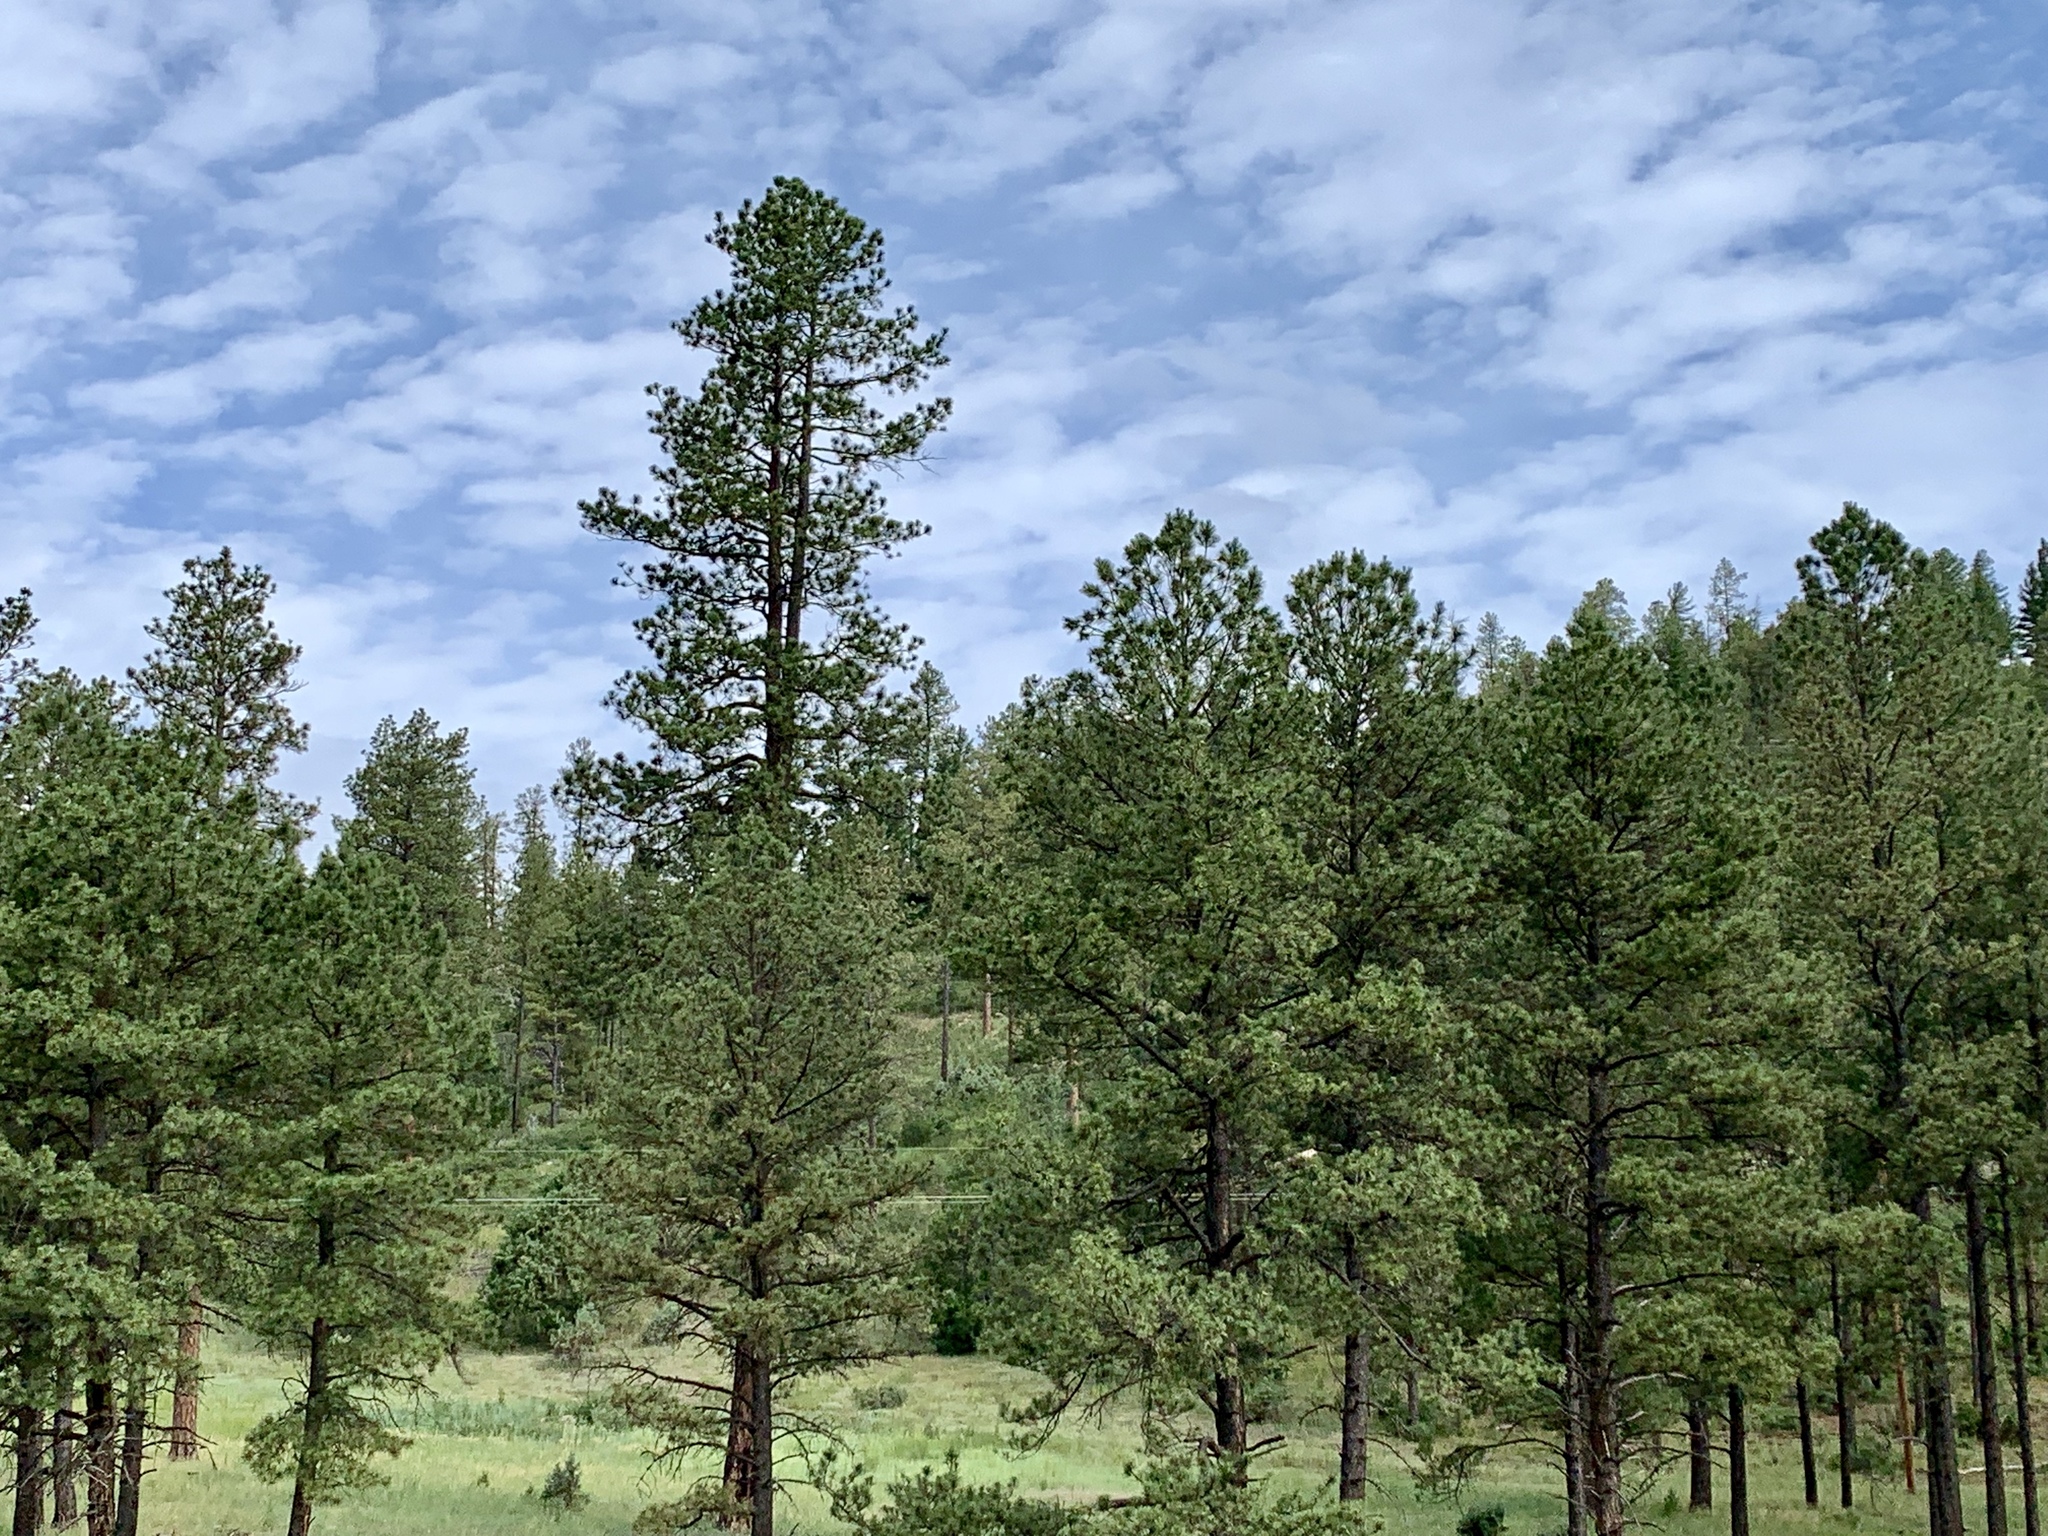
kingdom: Plantae
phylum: Tracheophyta
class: Pinopsida
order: Pinales
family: Pinaceae
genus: Pinus
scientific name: Pinus ponderosa
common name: Western yellow-pine
